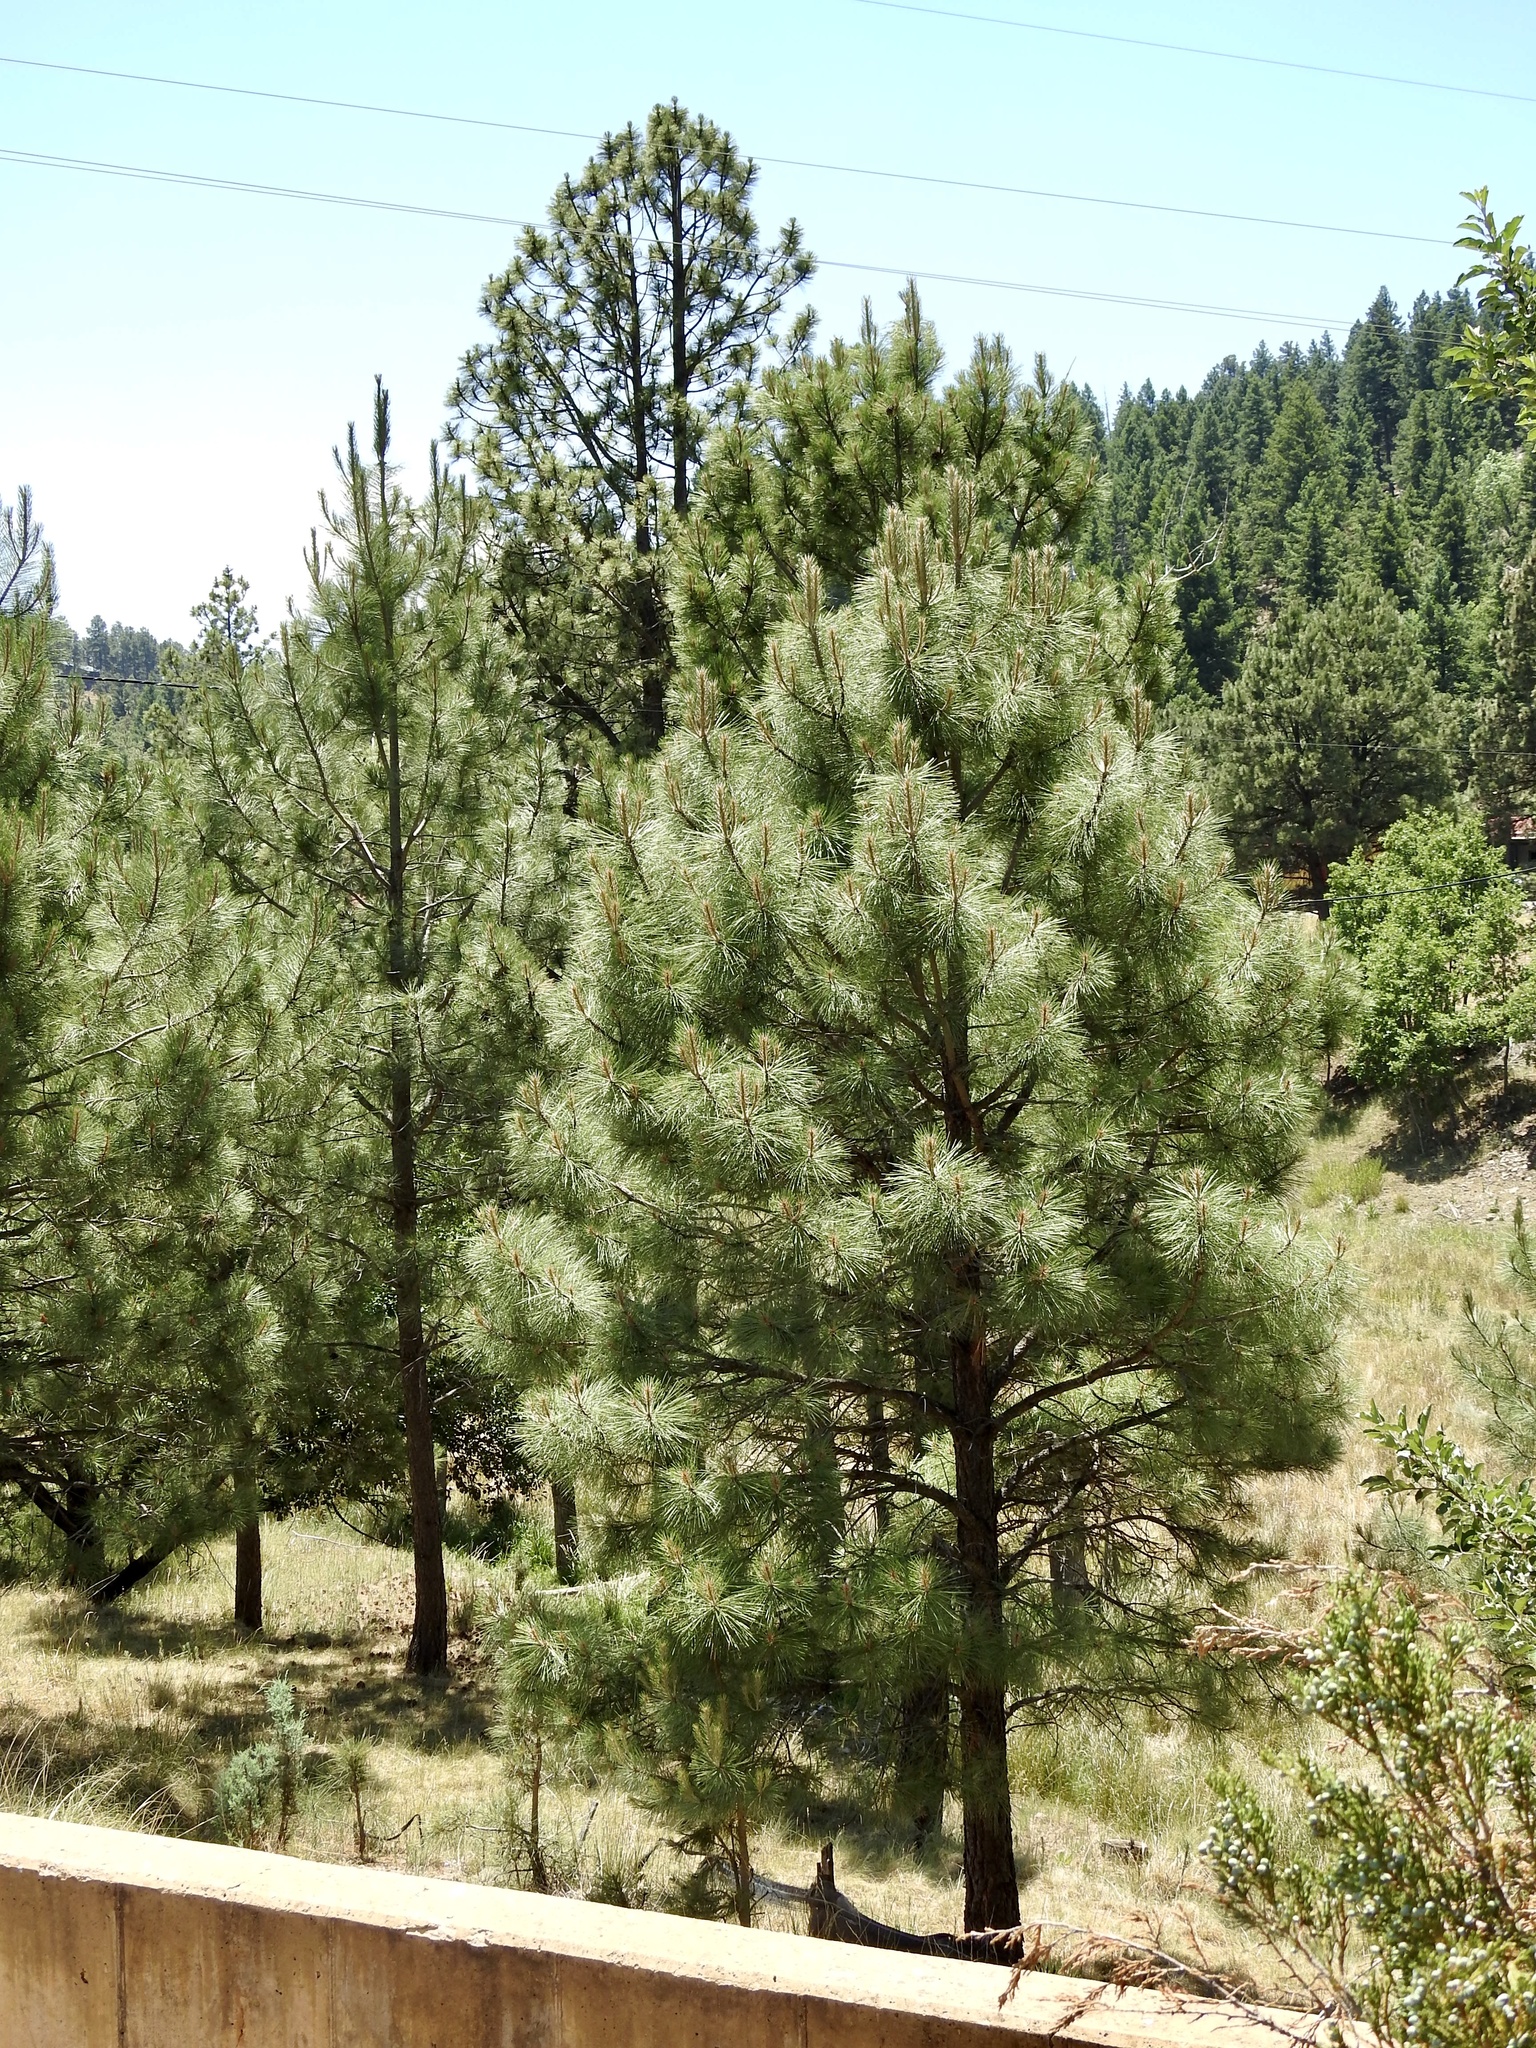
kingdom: Plantae
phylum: Tracheophyta
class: Pinopsida
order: Pinales
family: Pinaceae
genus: Pinus
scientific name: Pinus ponderosa
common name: Western yellow-pine
